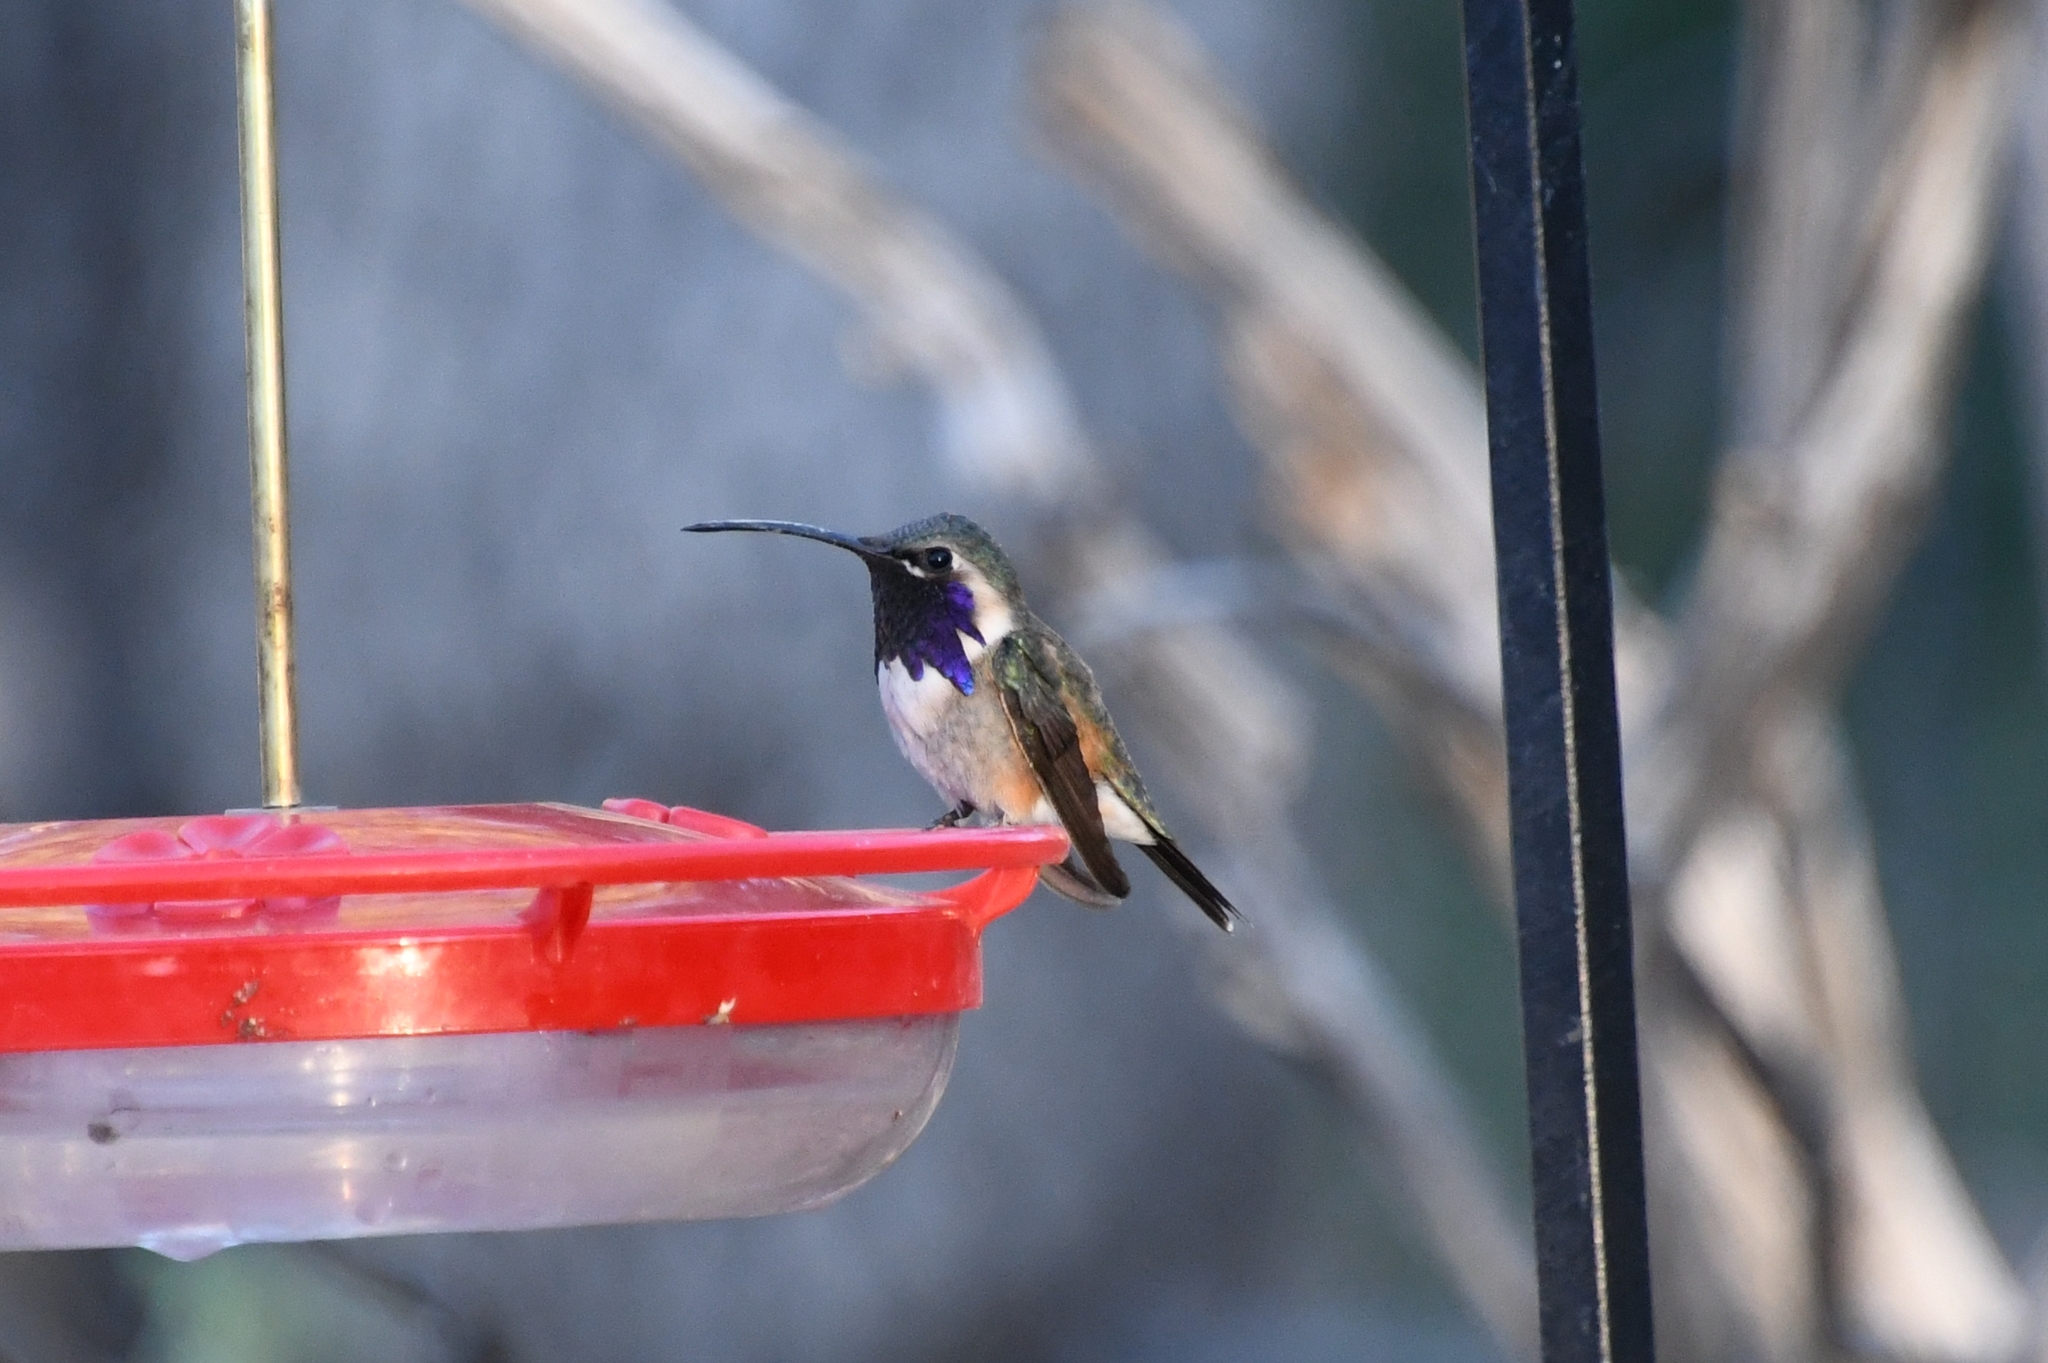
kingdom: Animalia
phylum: Chordata
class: Aves
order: Apodiformes
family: Trochilidae
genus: Calothorax
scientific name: Calothorax lucifer
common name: Lucifer sheartail
